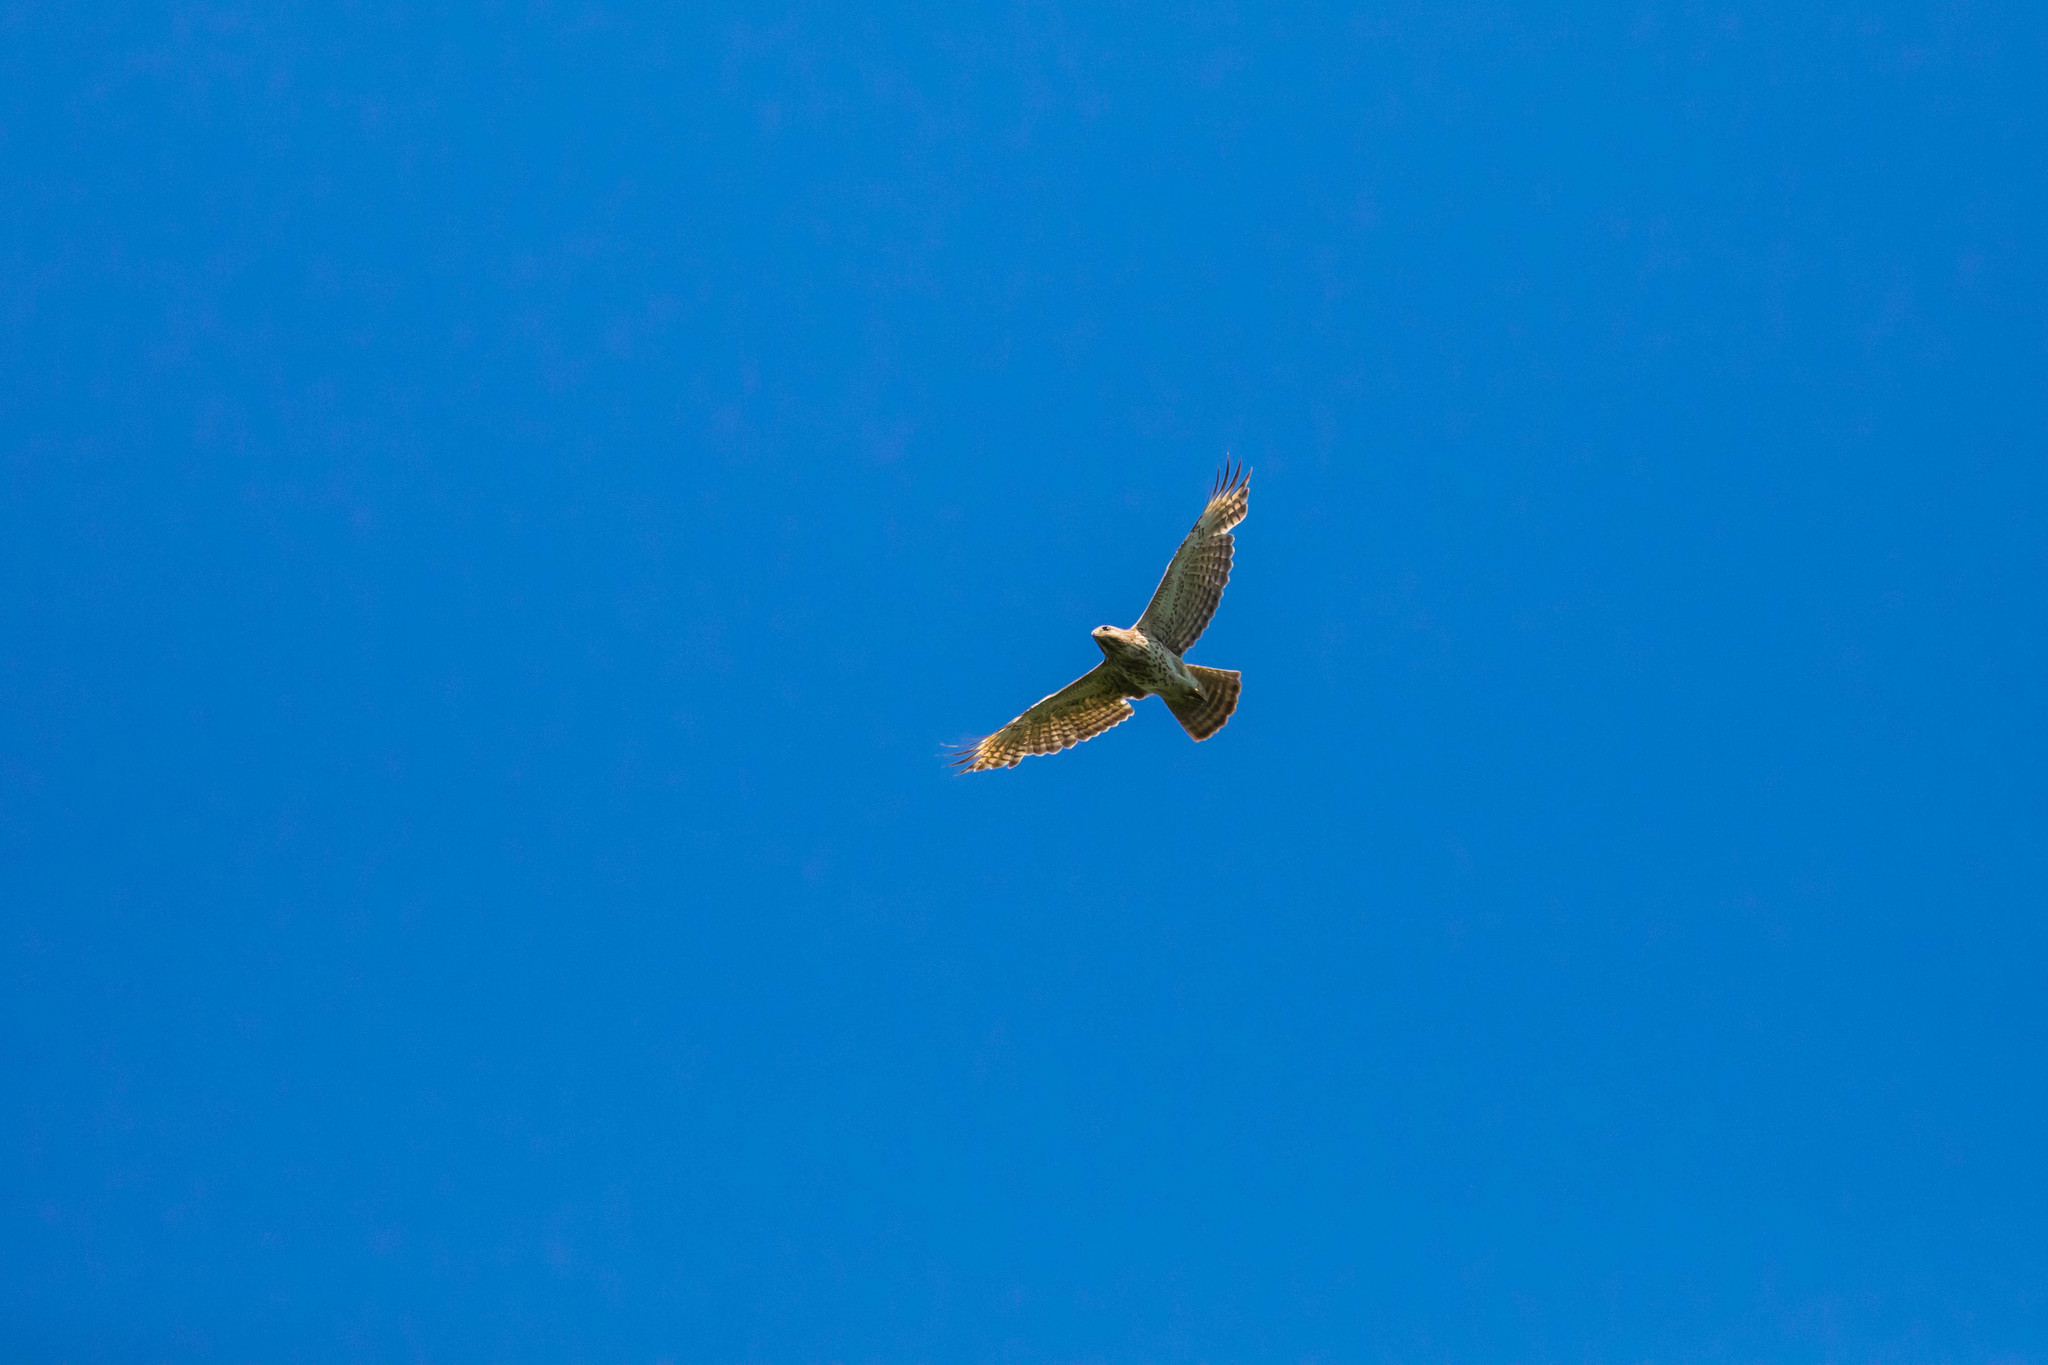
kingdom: Animalia
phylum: Chordata
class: Aves
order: Accipitriformes
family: Accipitridae
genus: Buteo
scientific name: Buteo lineatus
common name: Red-shouldered hawk
